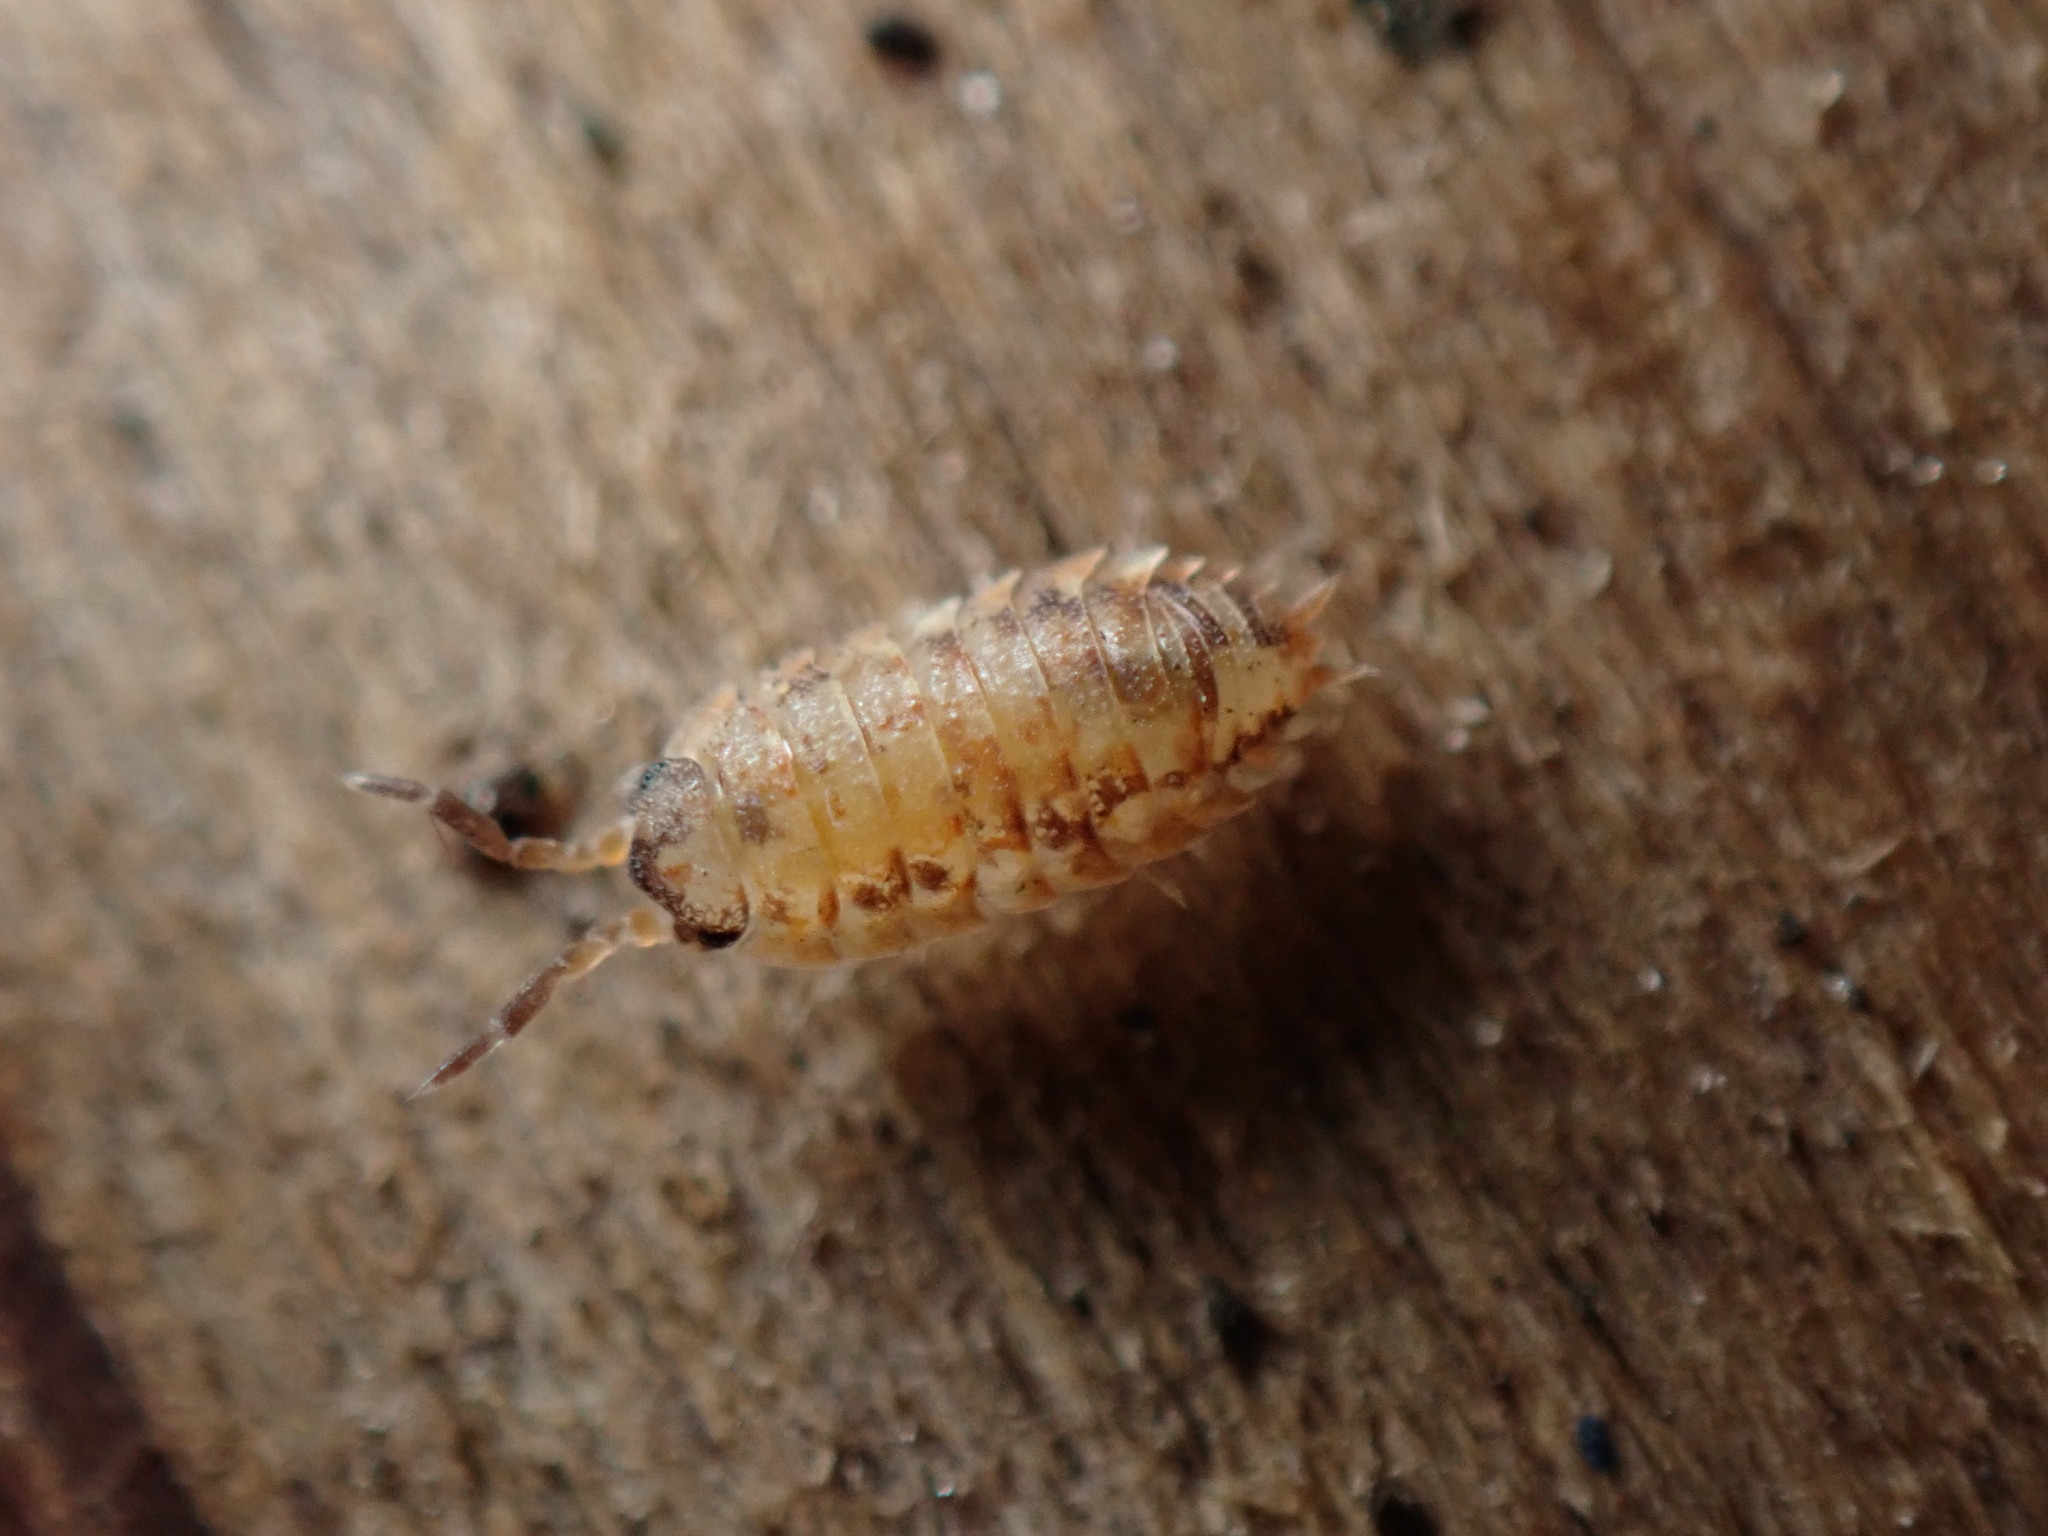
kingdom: Animalia
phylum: Arthropoda
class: Malacostraca
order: Isopoda
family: Porcellionidae
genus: Porcellio
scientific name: Porcellio scaber
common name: Common rough woodlouse
